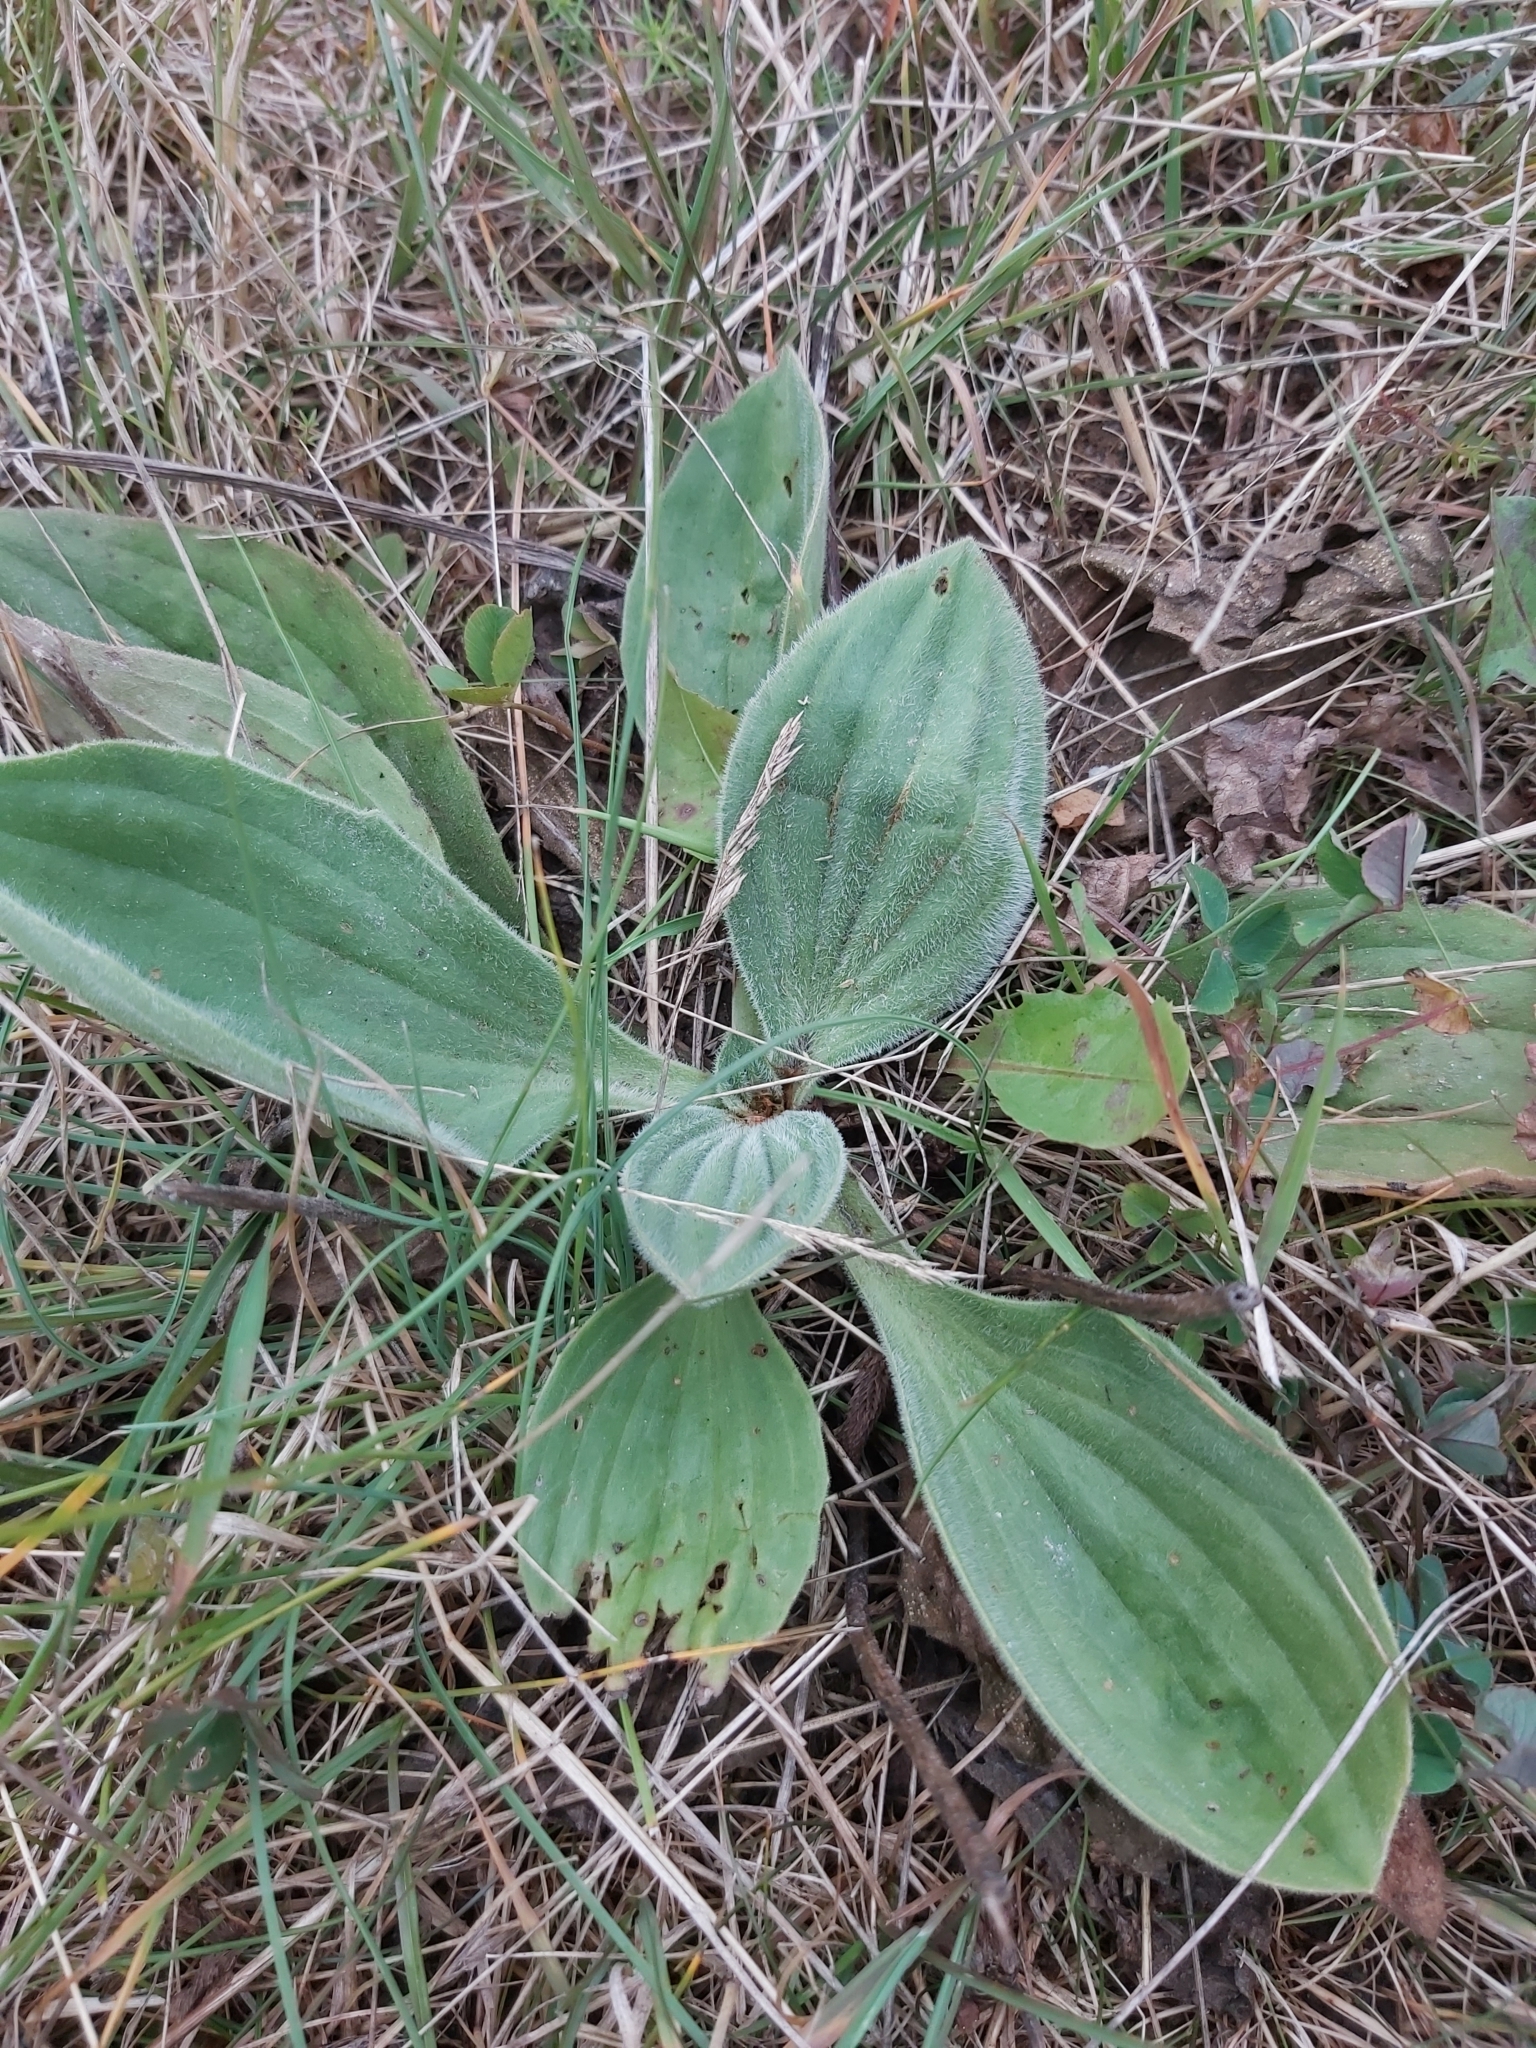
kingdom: Plantae
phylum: Tracheophyta
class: Magnoliopsida
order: Lamiales
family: Plantaginaceae
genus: Plantago
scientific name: Plantago media
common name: Hoary plantain
